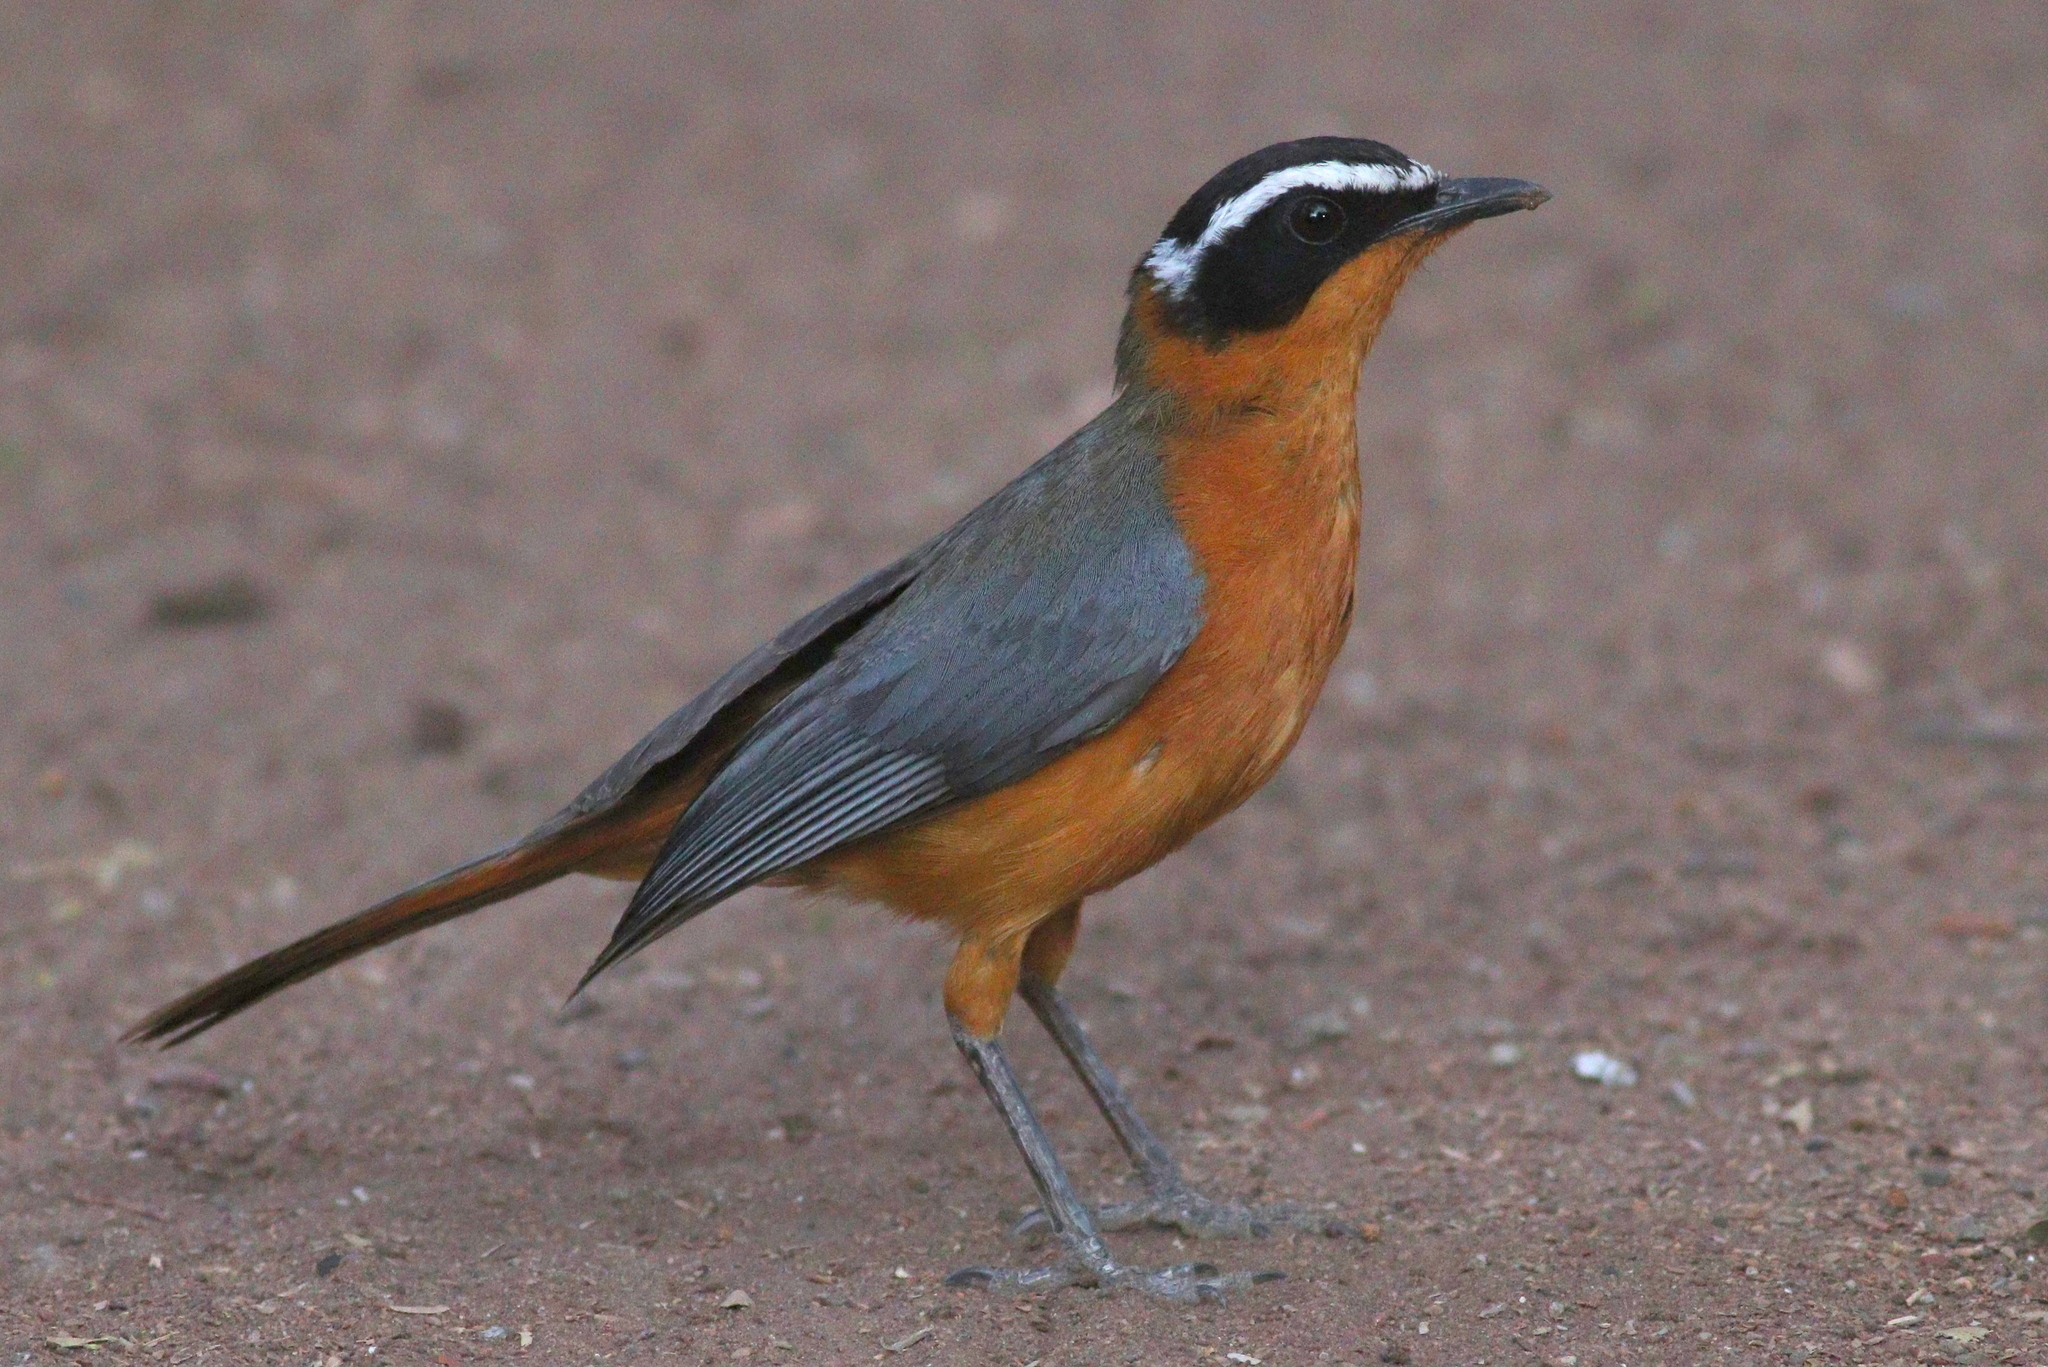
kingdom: Animalia
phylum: Chordata
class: Aves
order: Passeriformes
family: Muscicapidae
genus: Cossypha
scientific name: Cossypha heuglini
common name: White-browed robin-chat
